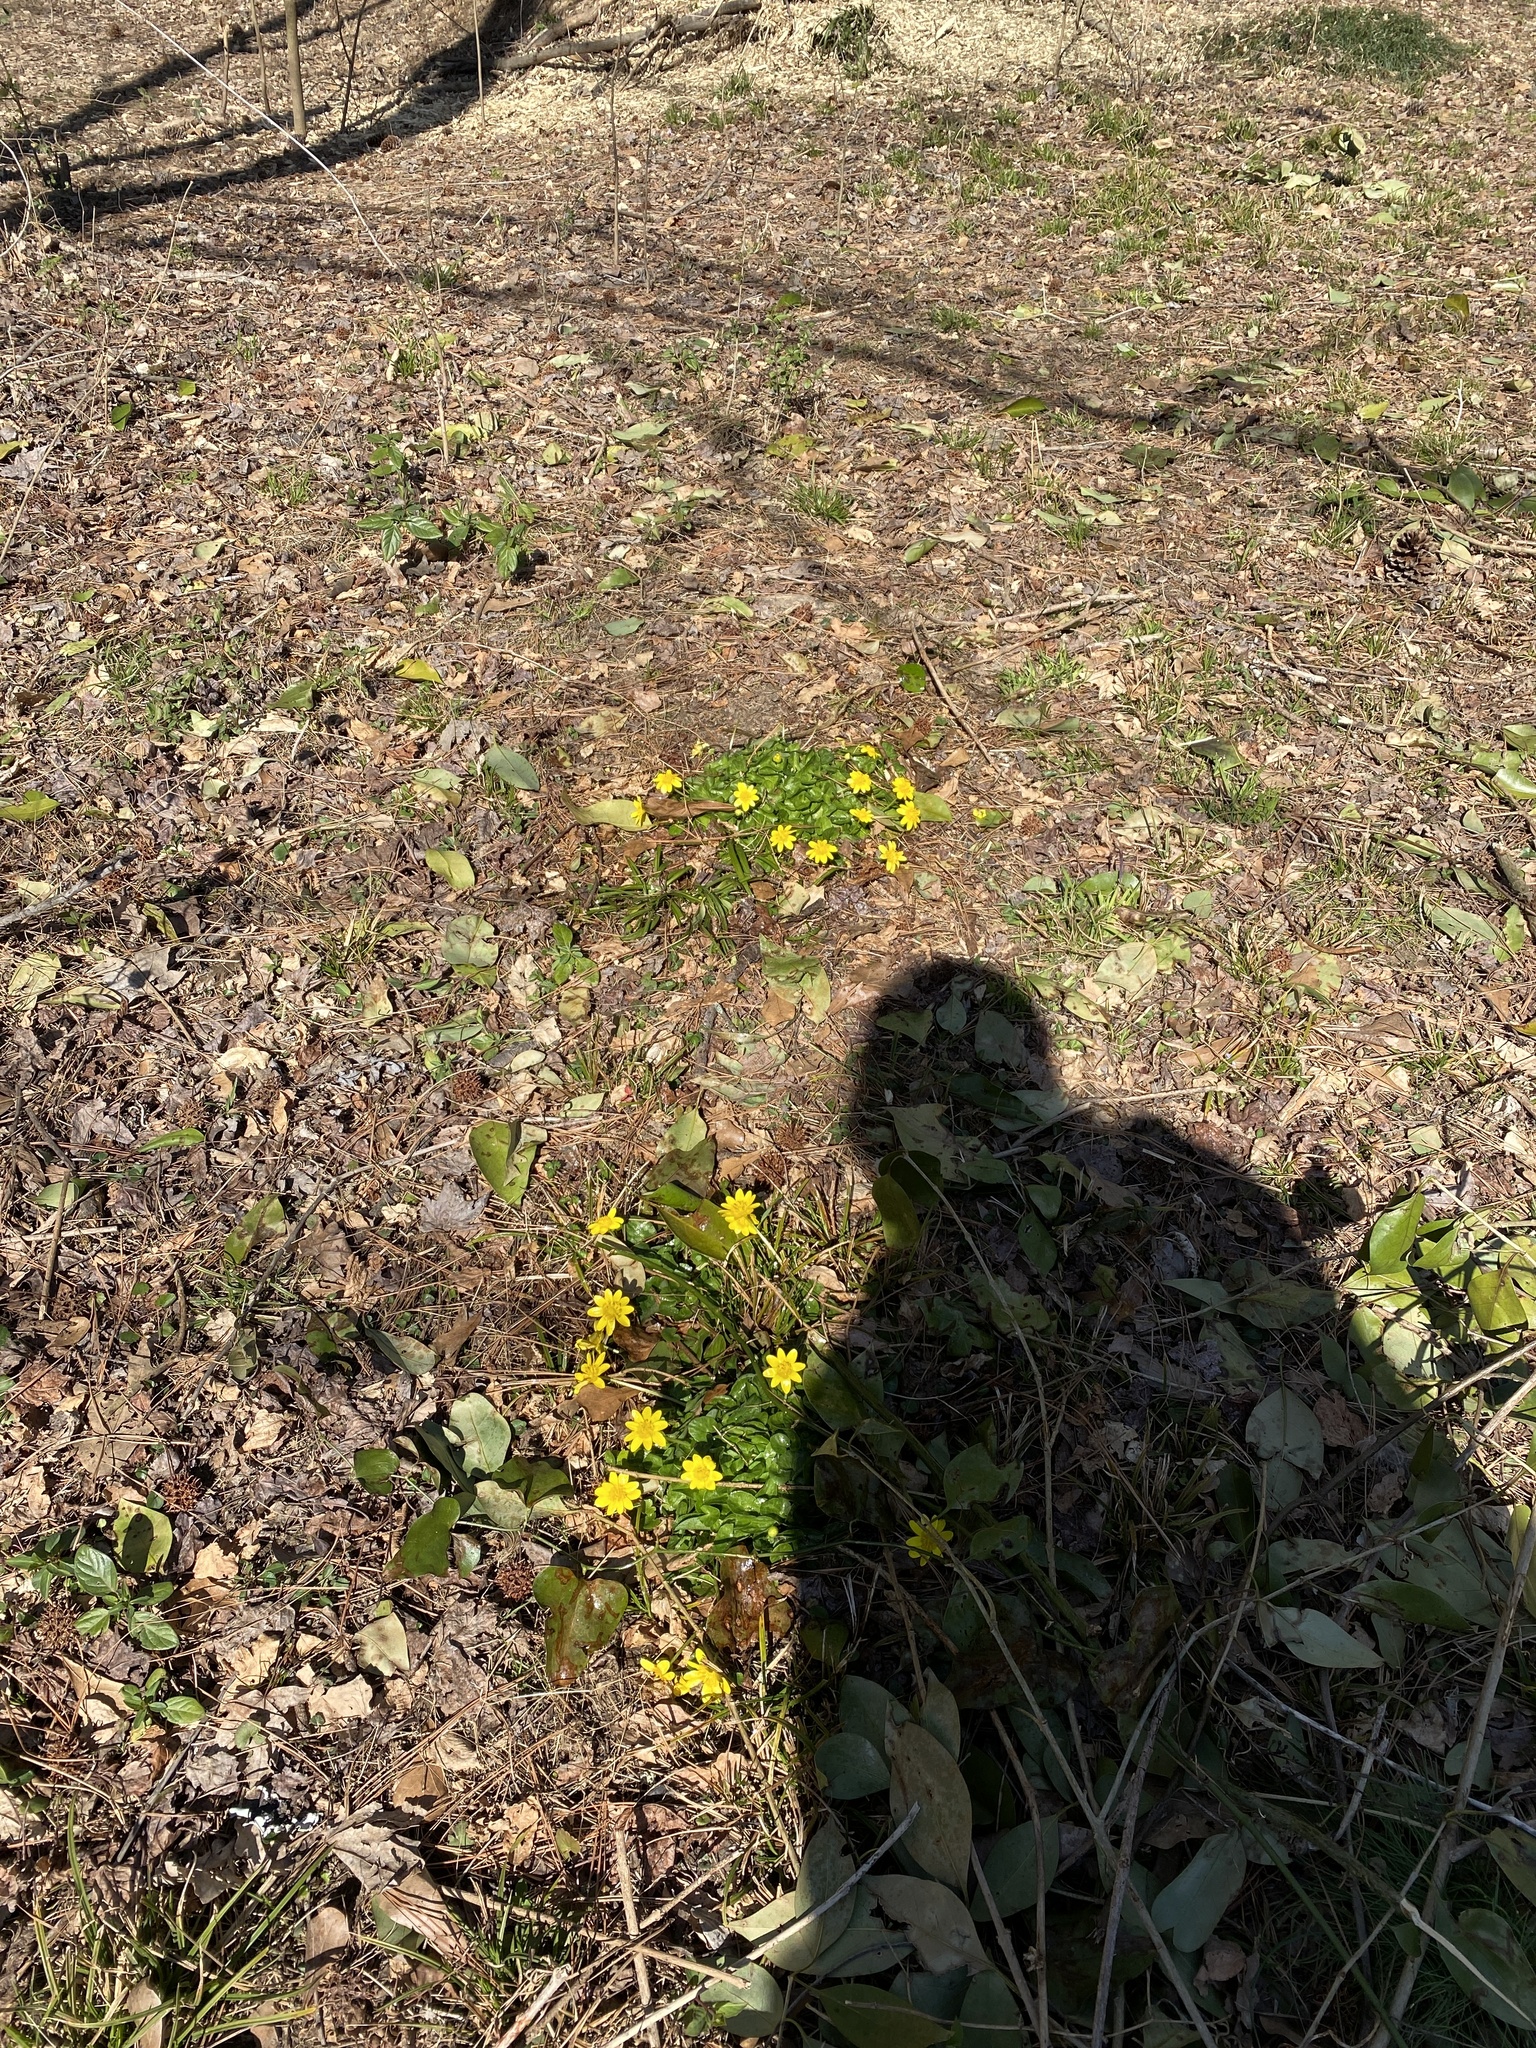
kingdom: Plantae
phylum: Tracheophyta
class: Magnoliopsida
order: Ranunculales
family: Ranunculaceae
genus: Ficaria
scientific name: Ficaria verna
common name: Lesser celandine
